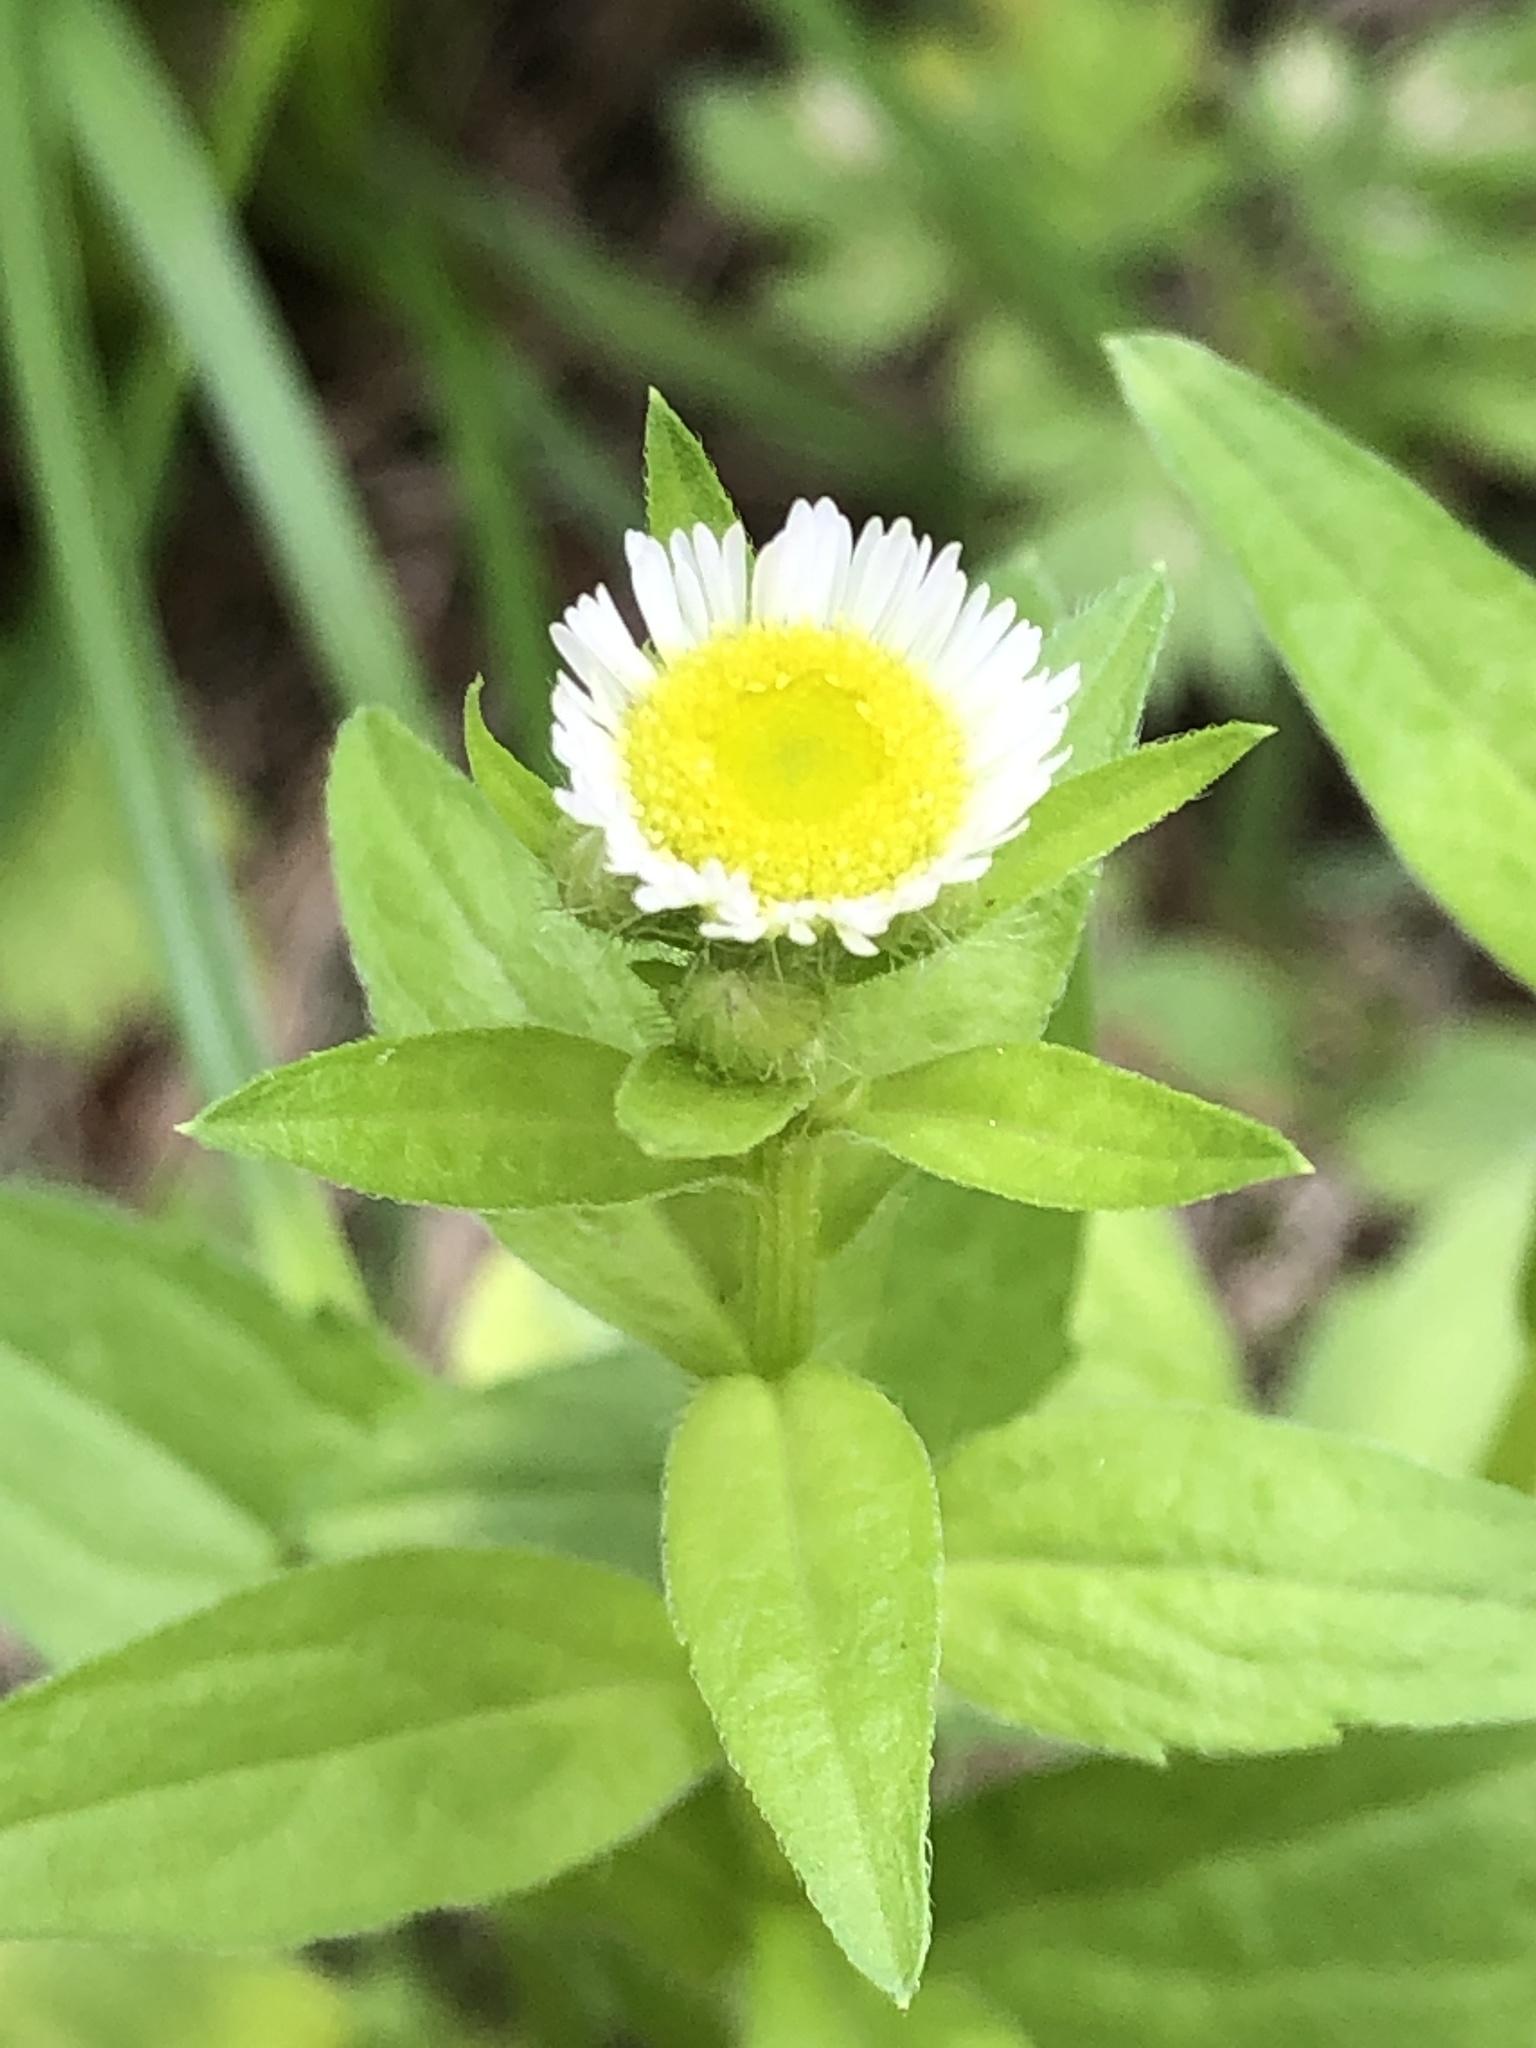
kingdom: Plantae
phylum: Tracheophyta
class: Magnoliopsida
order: Asterales
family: Asteraceae
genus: Erigeron
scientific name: Erigeron annuus
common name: Tall fleabane
